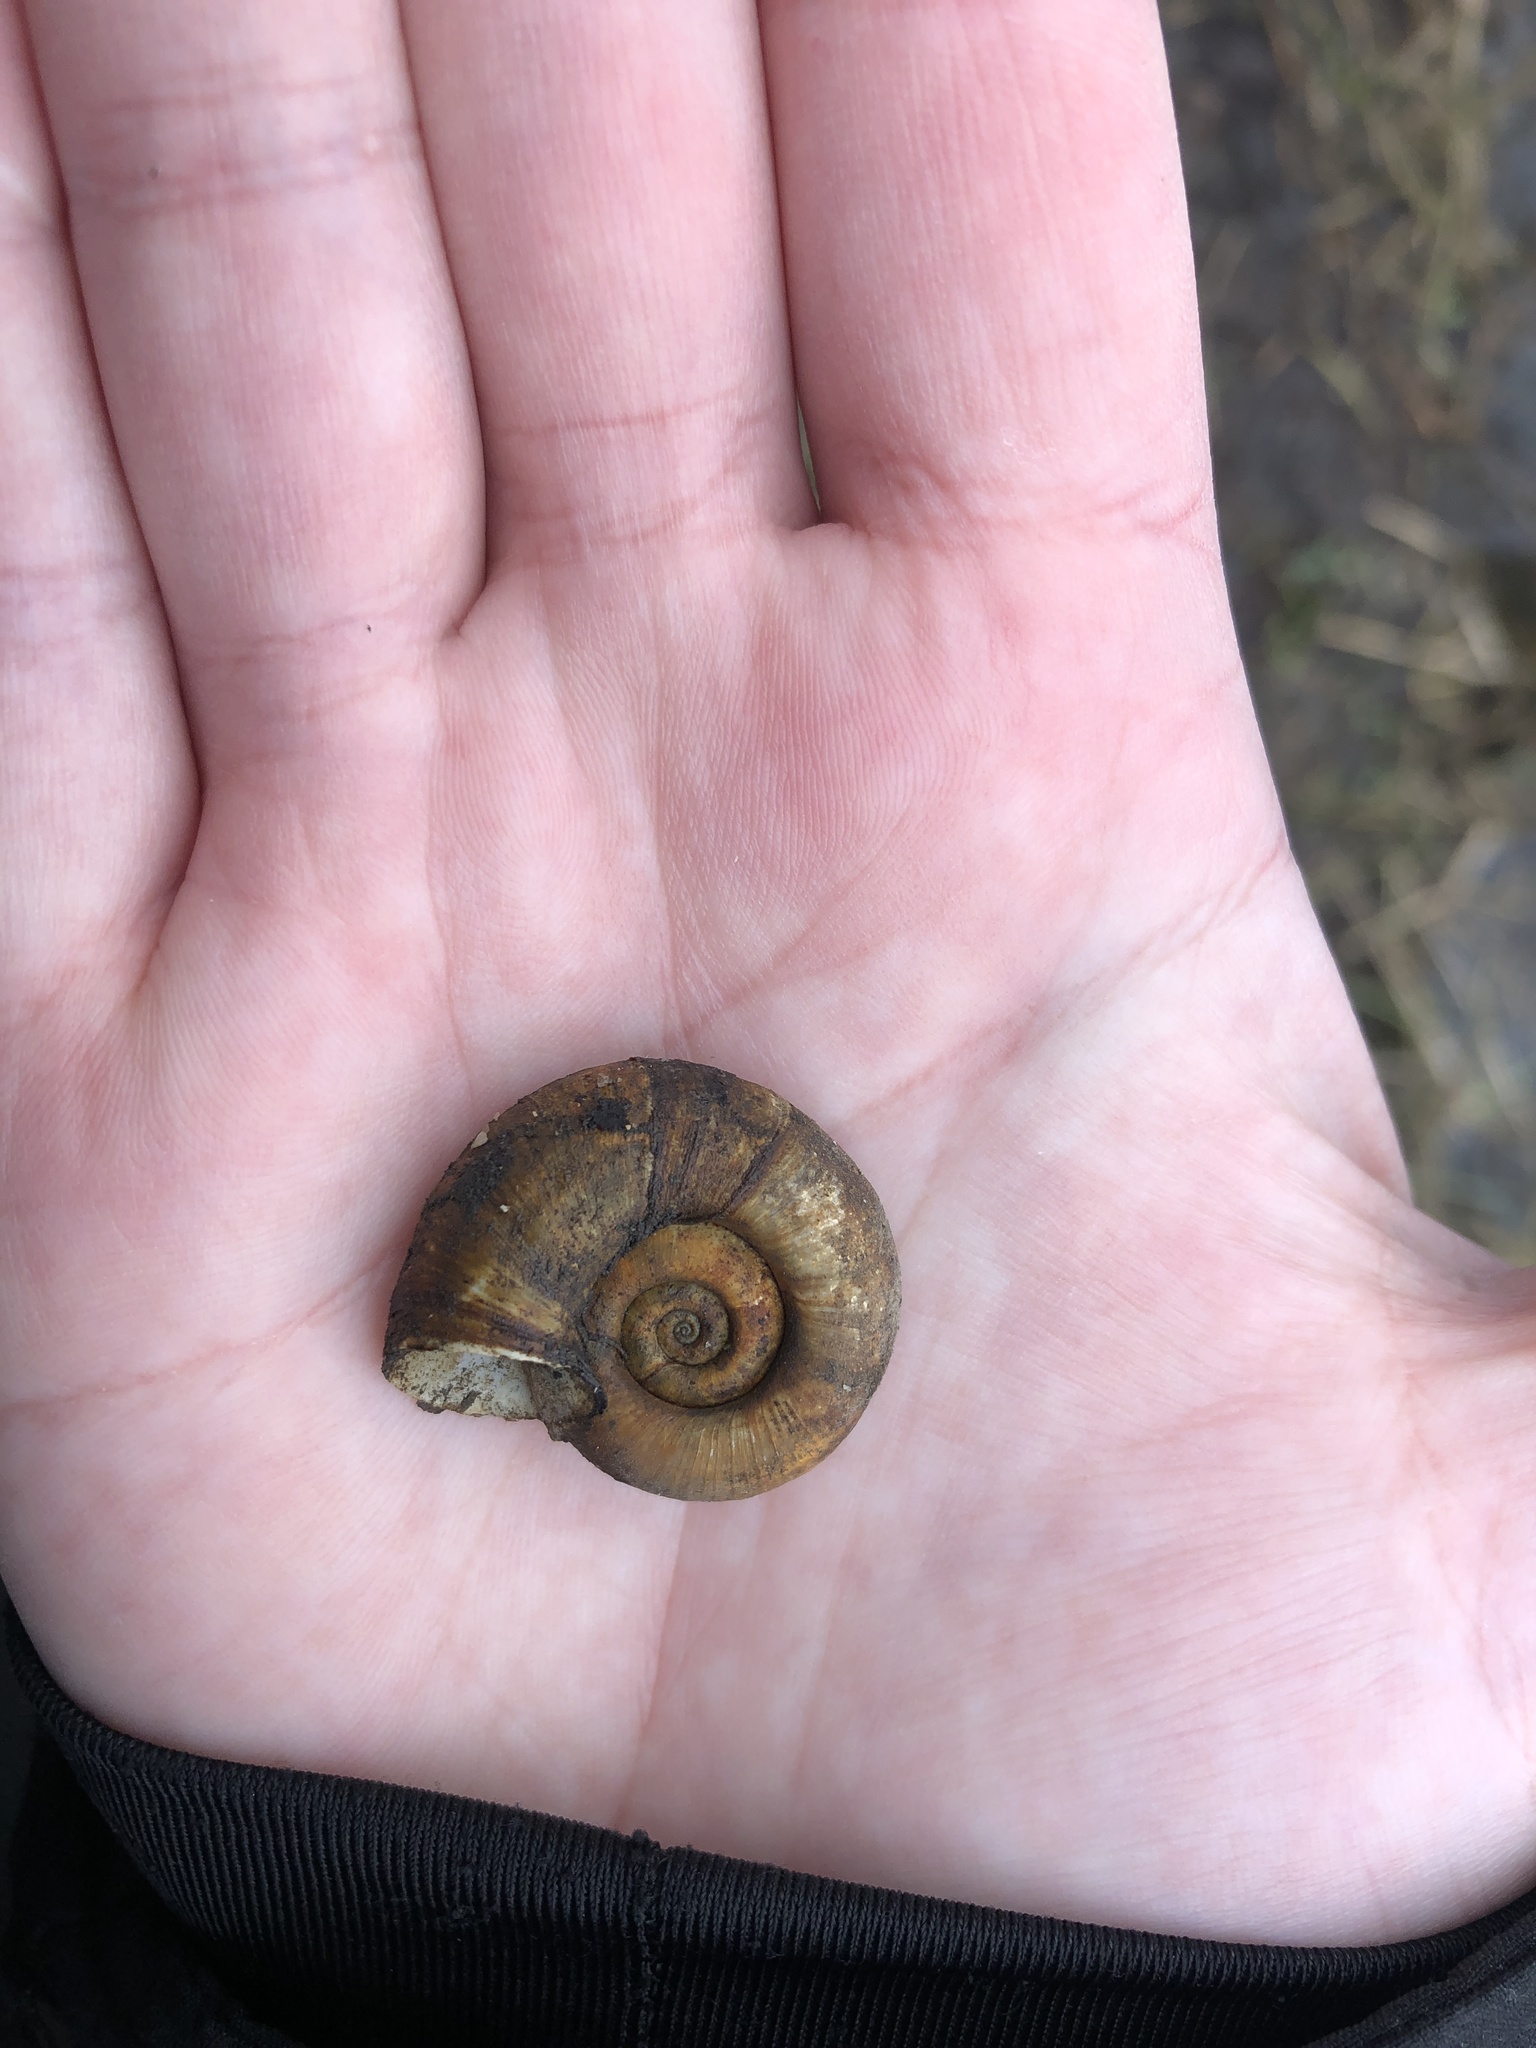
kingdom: Animalia
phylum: Mollusca
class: Gastropoda
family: Planorbidae
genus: Planorbarius
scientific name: Planorbarius corneus
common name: Great ramshorn
